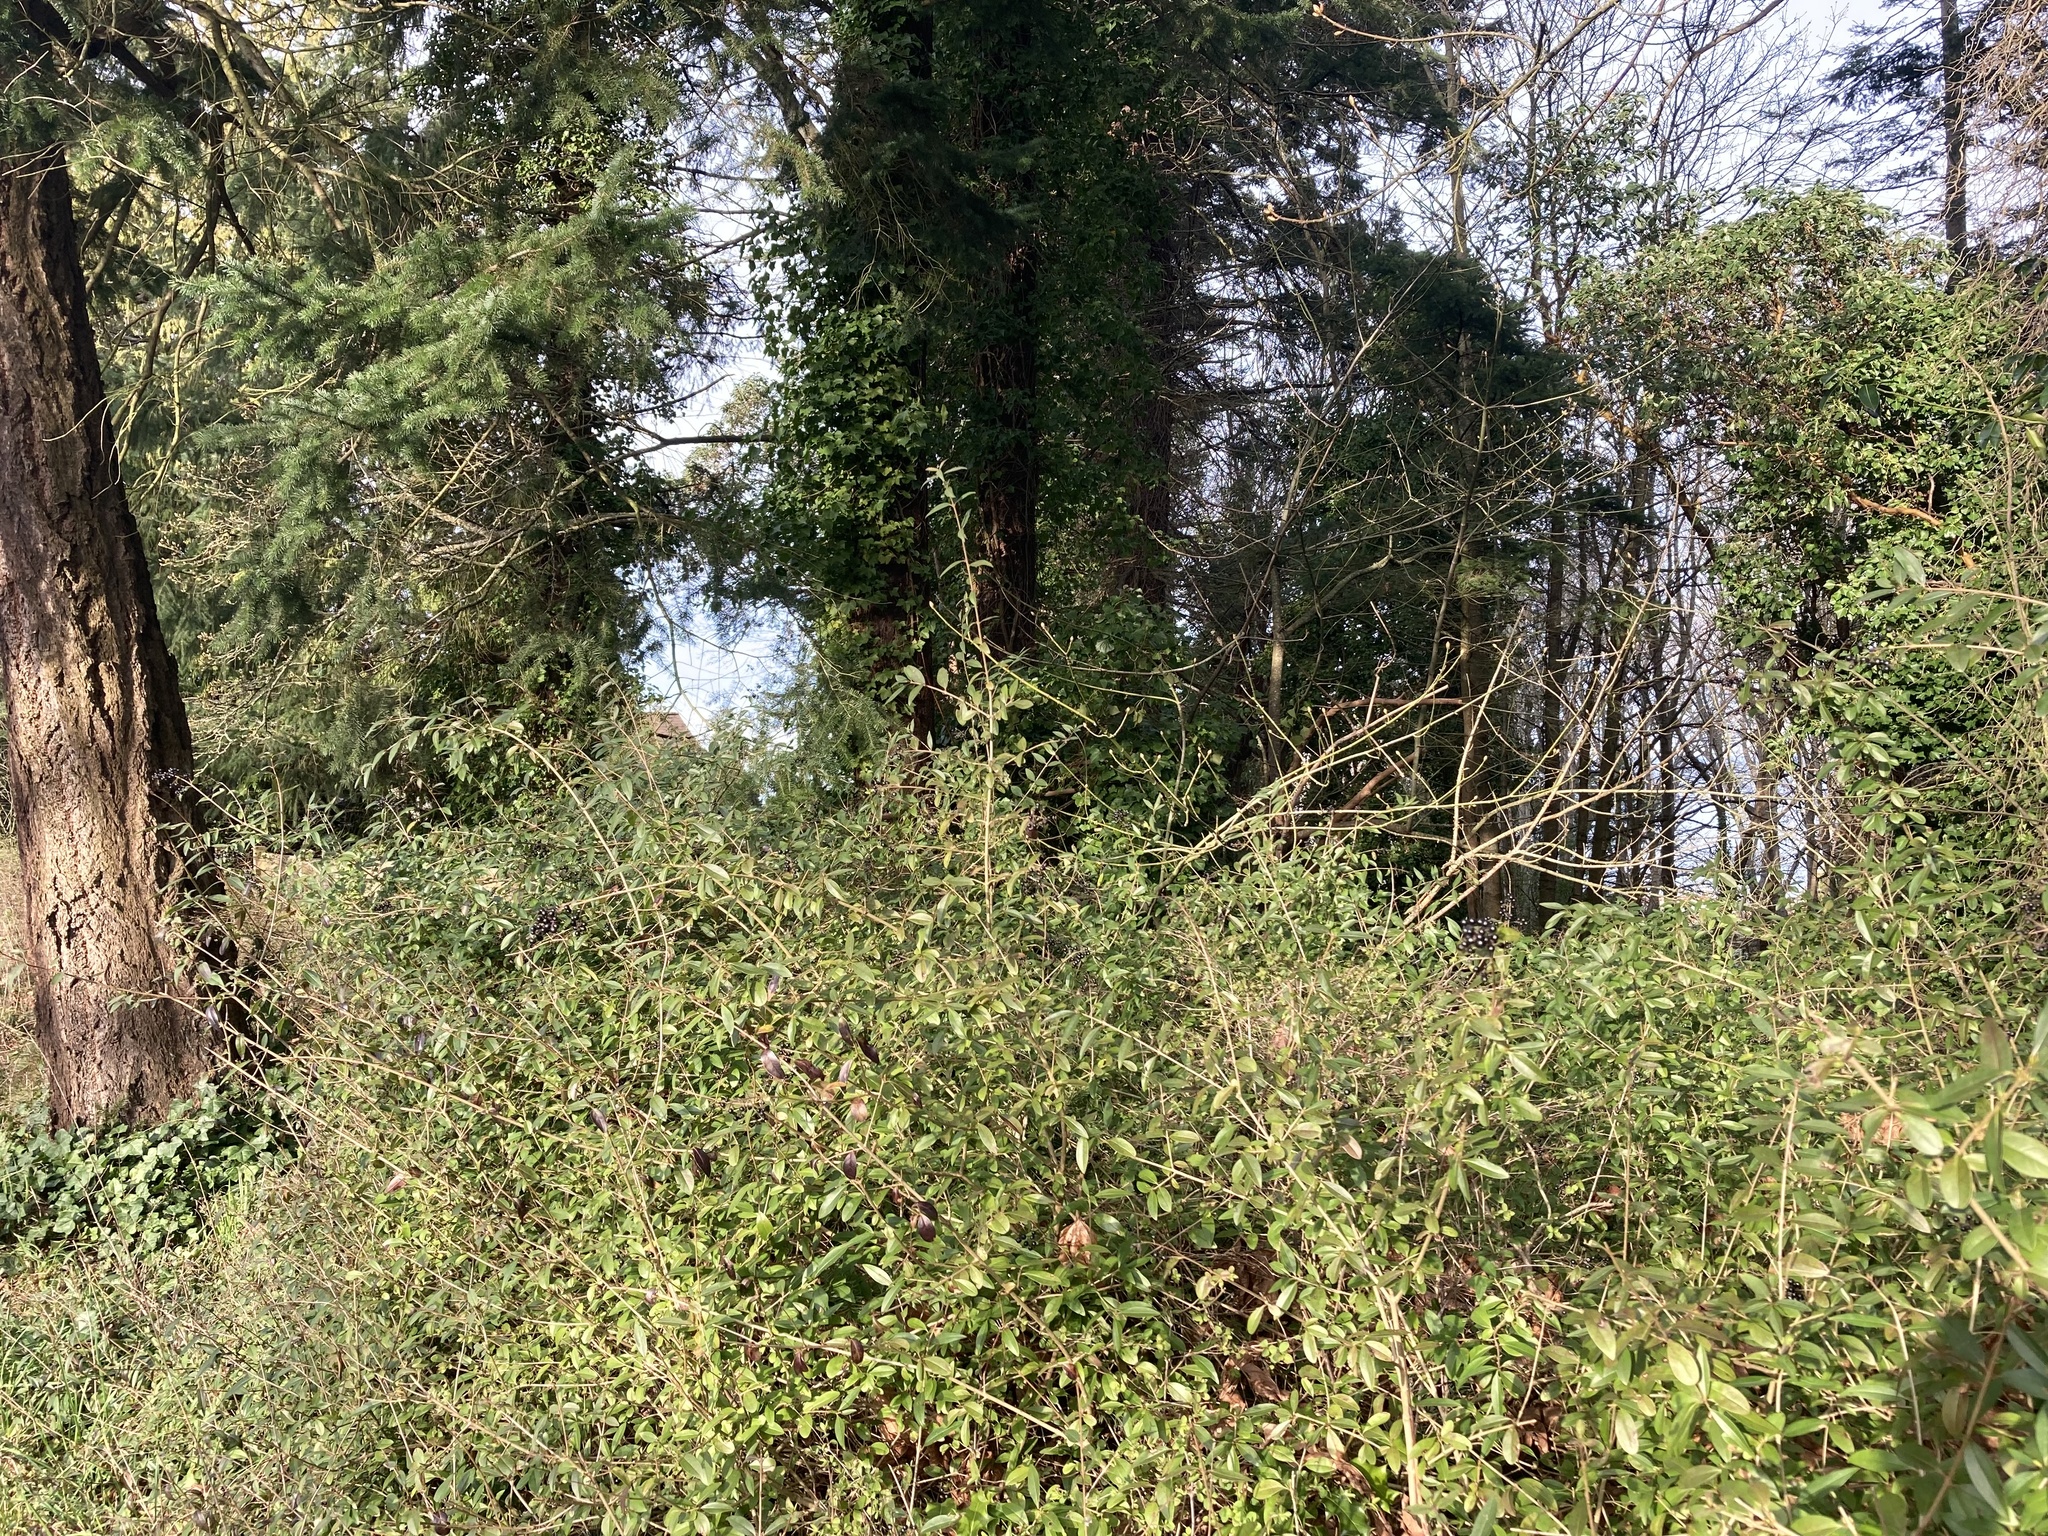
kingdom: Plantae
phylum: Tracheophyta
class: Magnoliopsida
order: Lamiales
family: Oleaceae
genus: Ligustrum
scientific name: Ligustrum vulgare
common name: Wild privet
